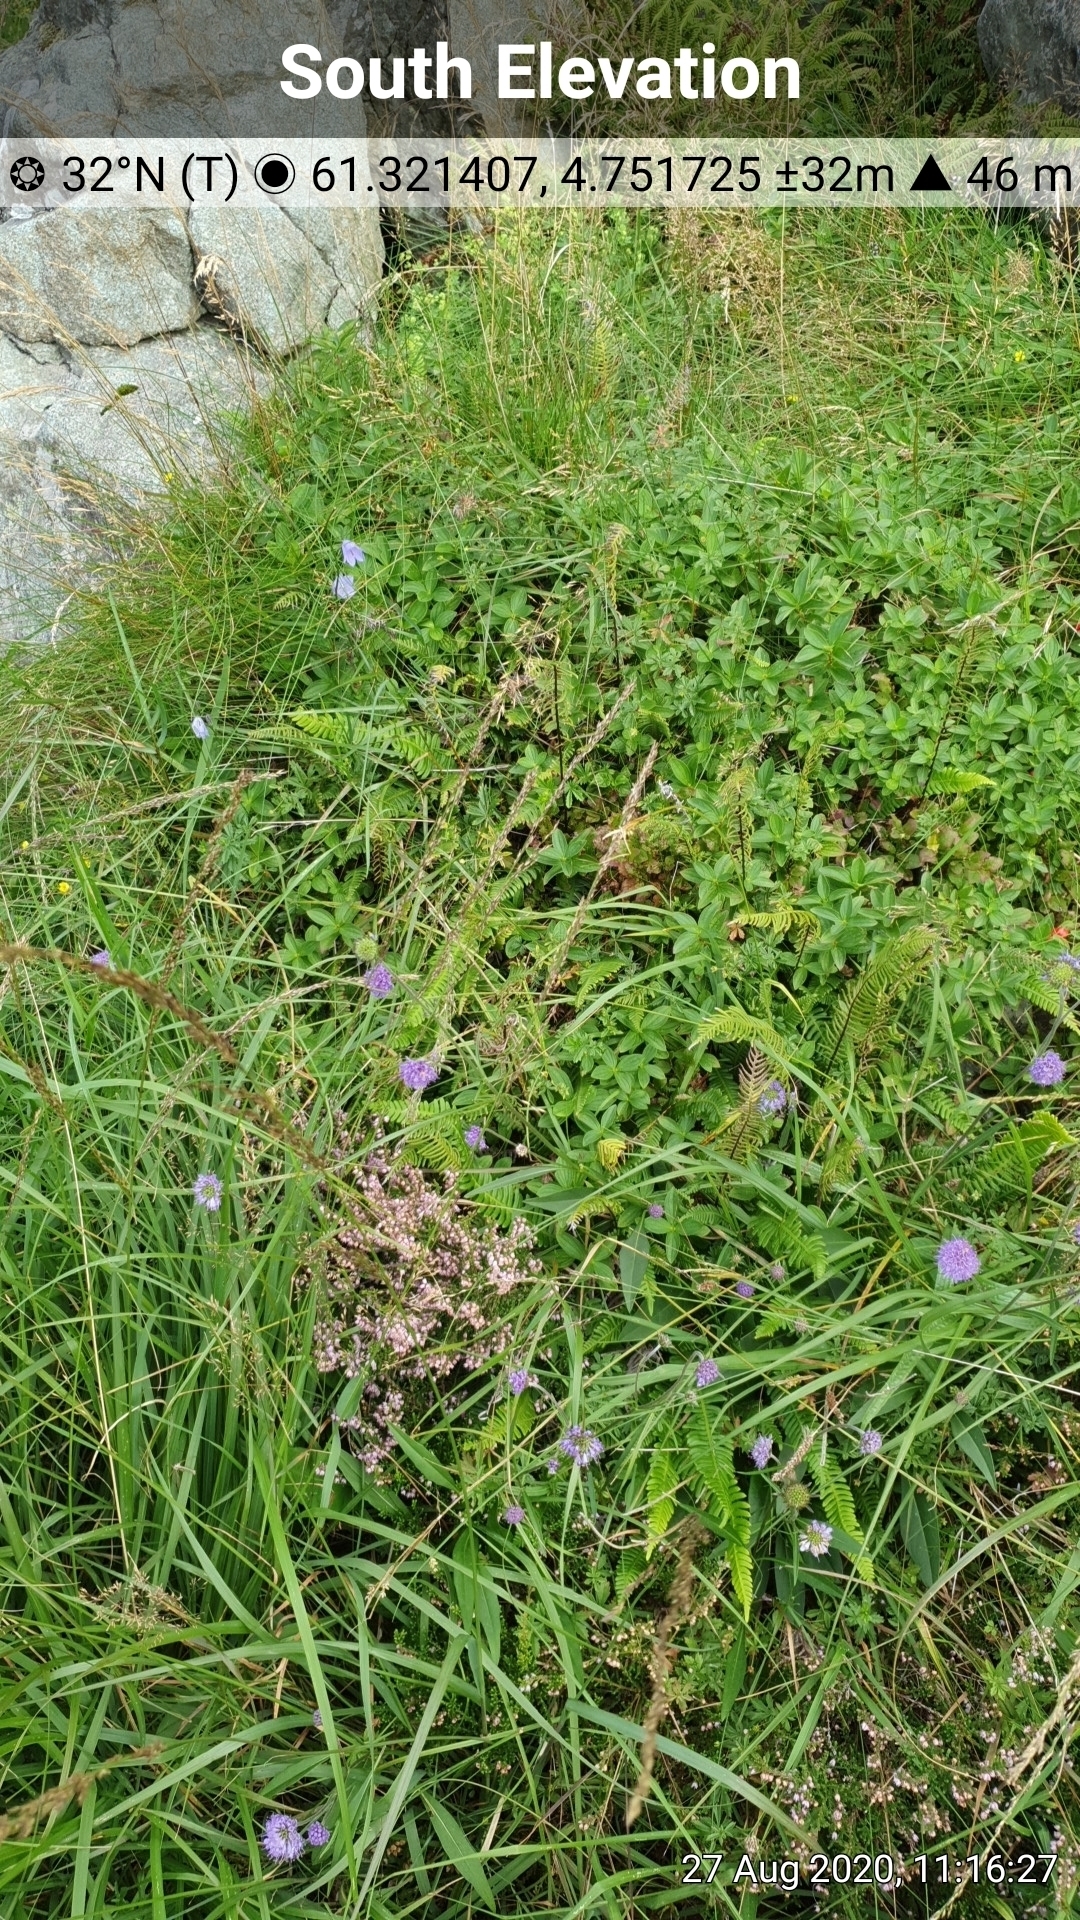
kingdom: Plantae
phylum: Tracheophyta
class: Magnoliopsida
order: Dipsacales
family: Caprifoliaceae
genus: Succisa
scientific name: Succisa pratensis
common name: Devil's-bit
